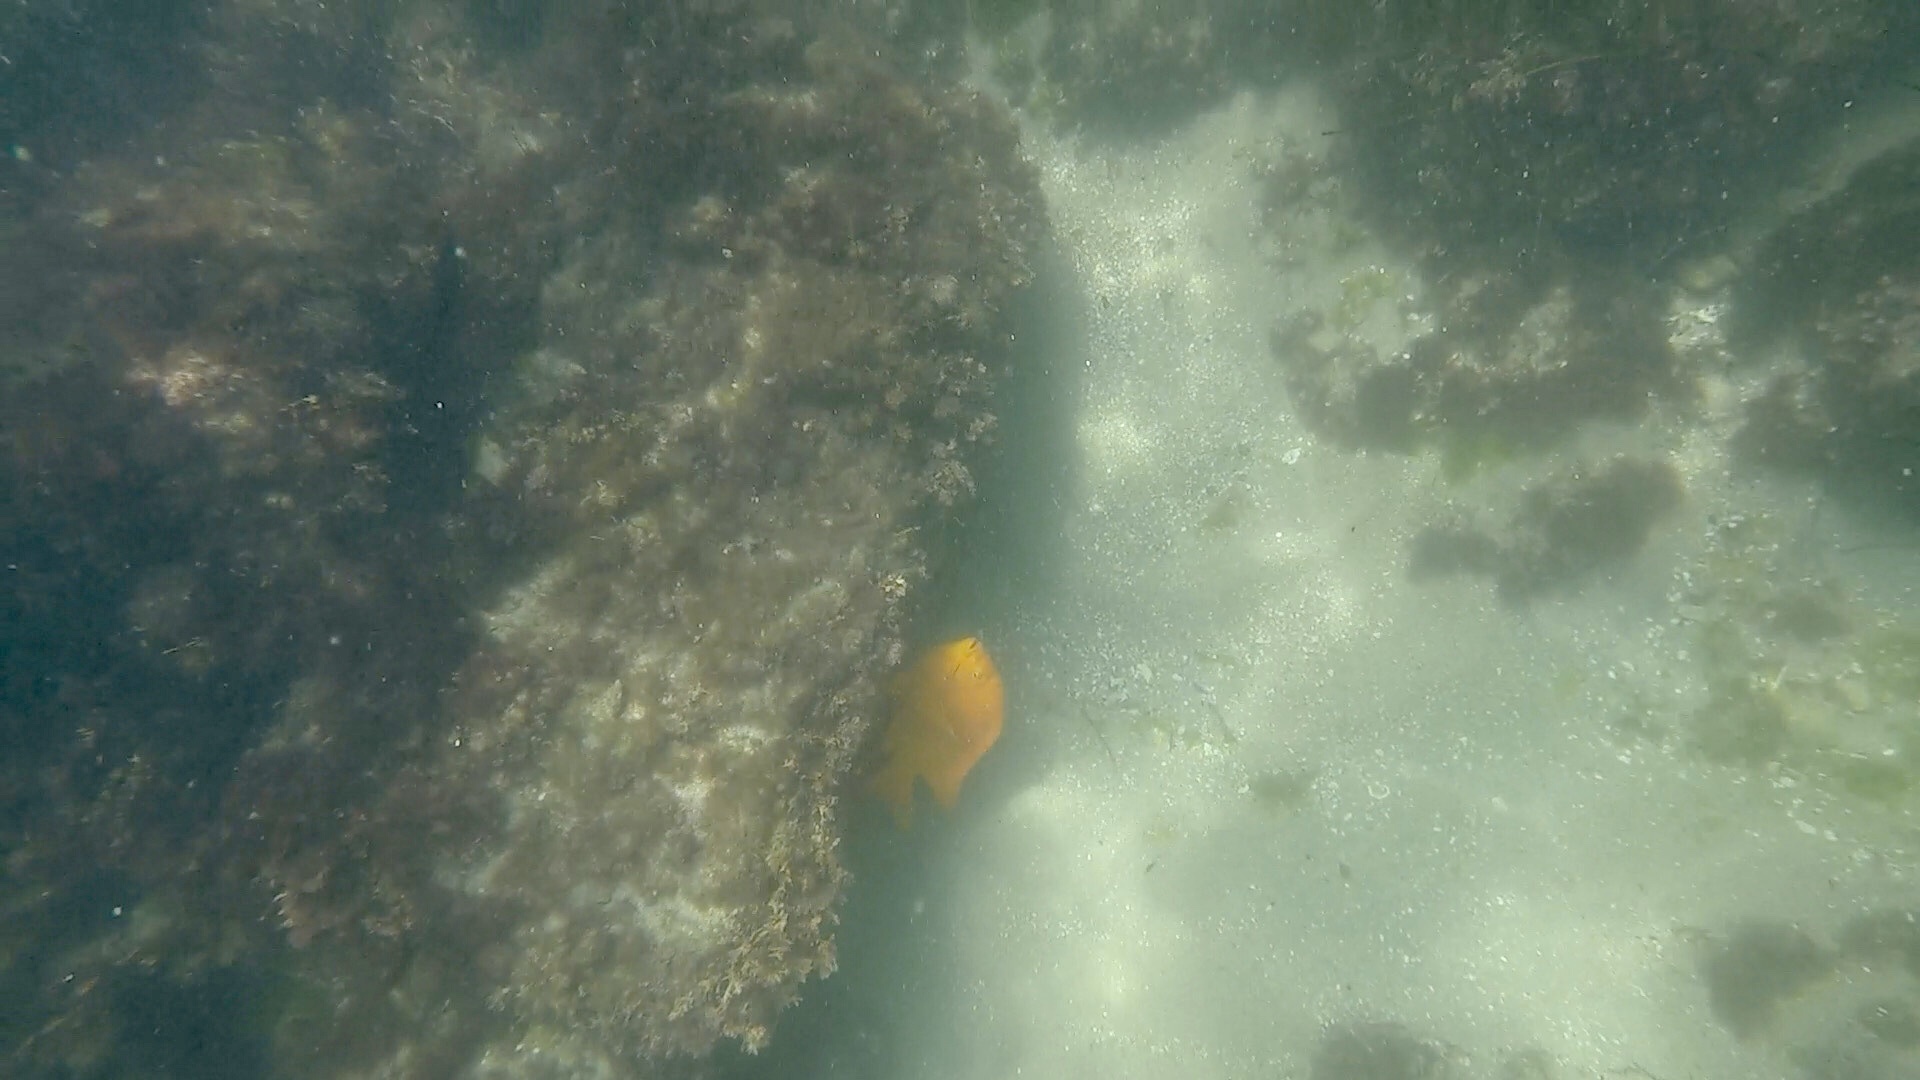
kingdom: Animalia
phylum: Chordata
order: Perciformes
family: Pomacentridae
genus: Hypsypops
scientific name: Hypsypops rubicundus
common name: Garibaldi
